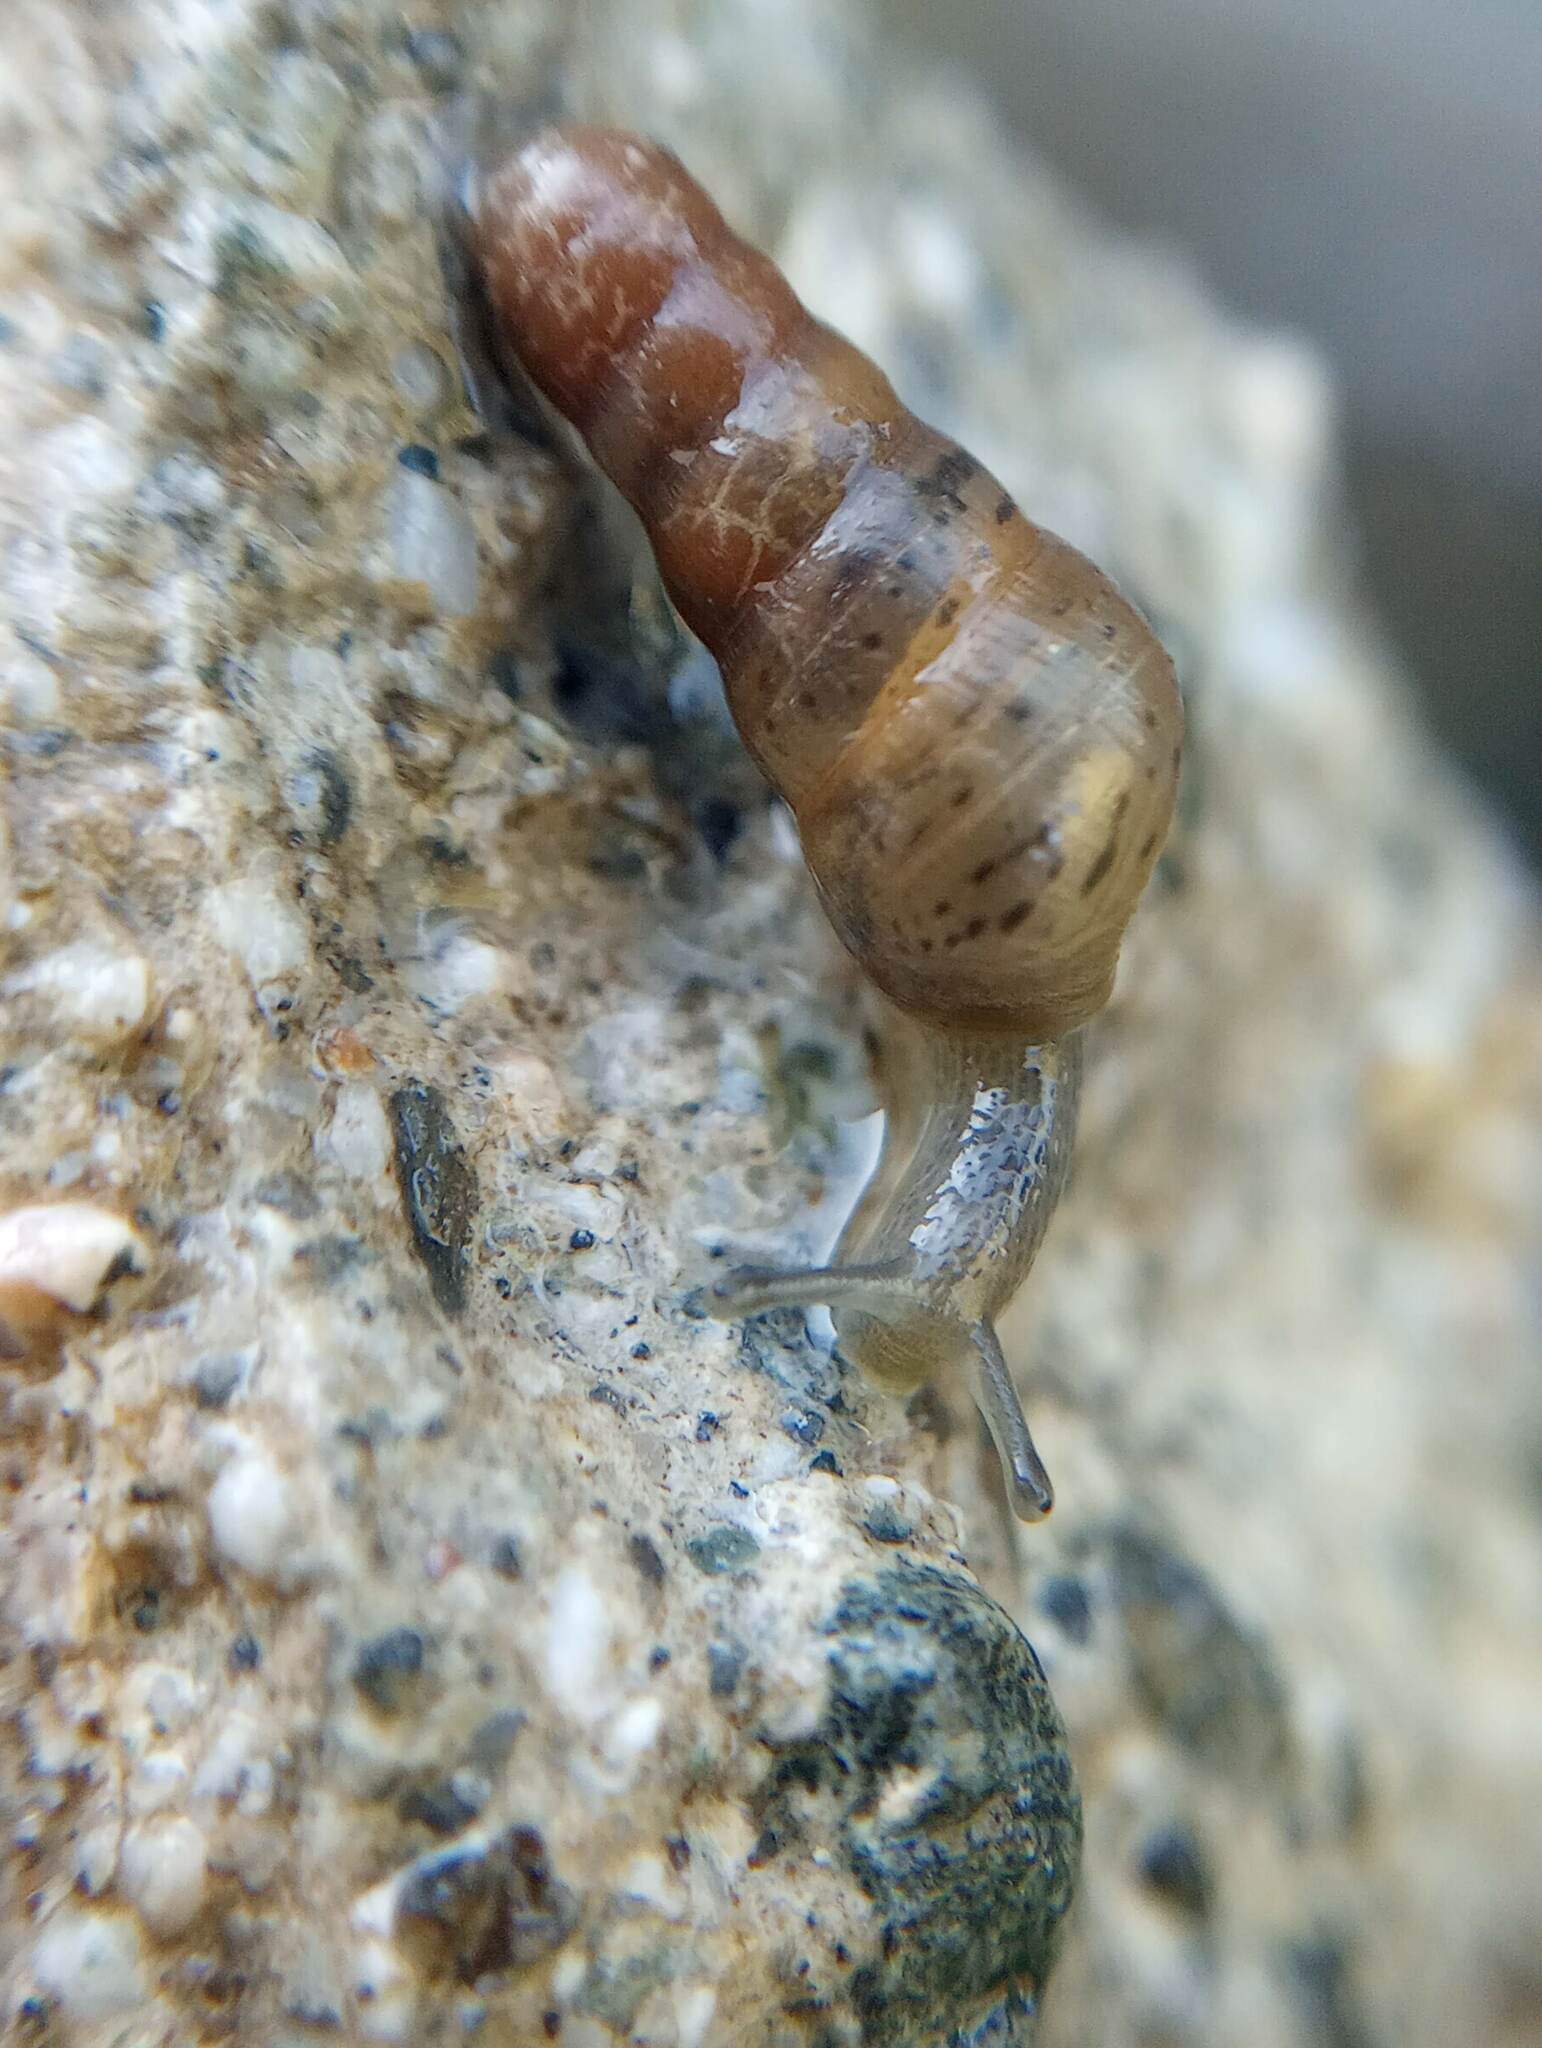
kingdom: Animalia
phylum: Mollusca
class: Gastropoda
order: Stylommatophora
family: Achatinidae
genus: Rumina
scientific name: Rumina decollata
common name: Decollate snail
